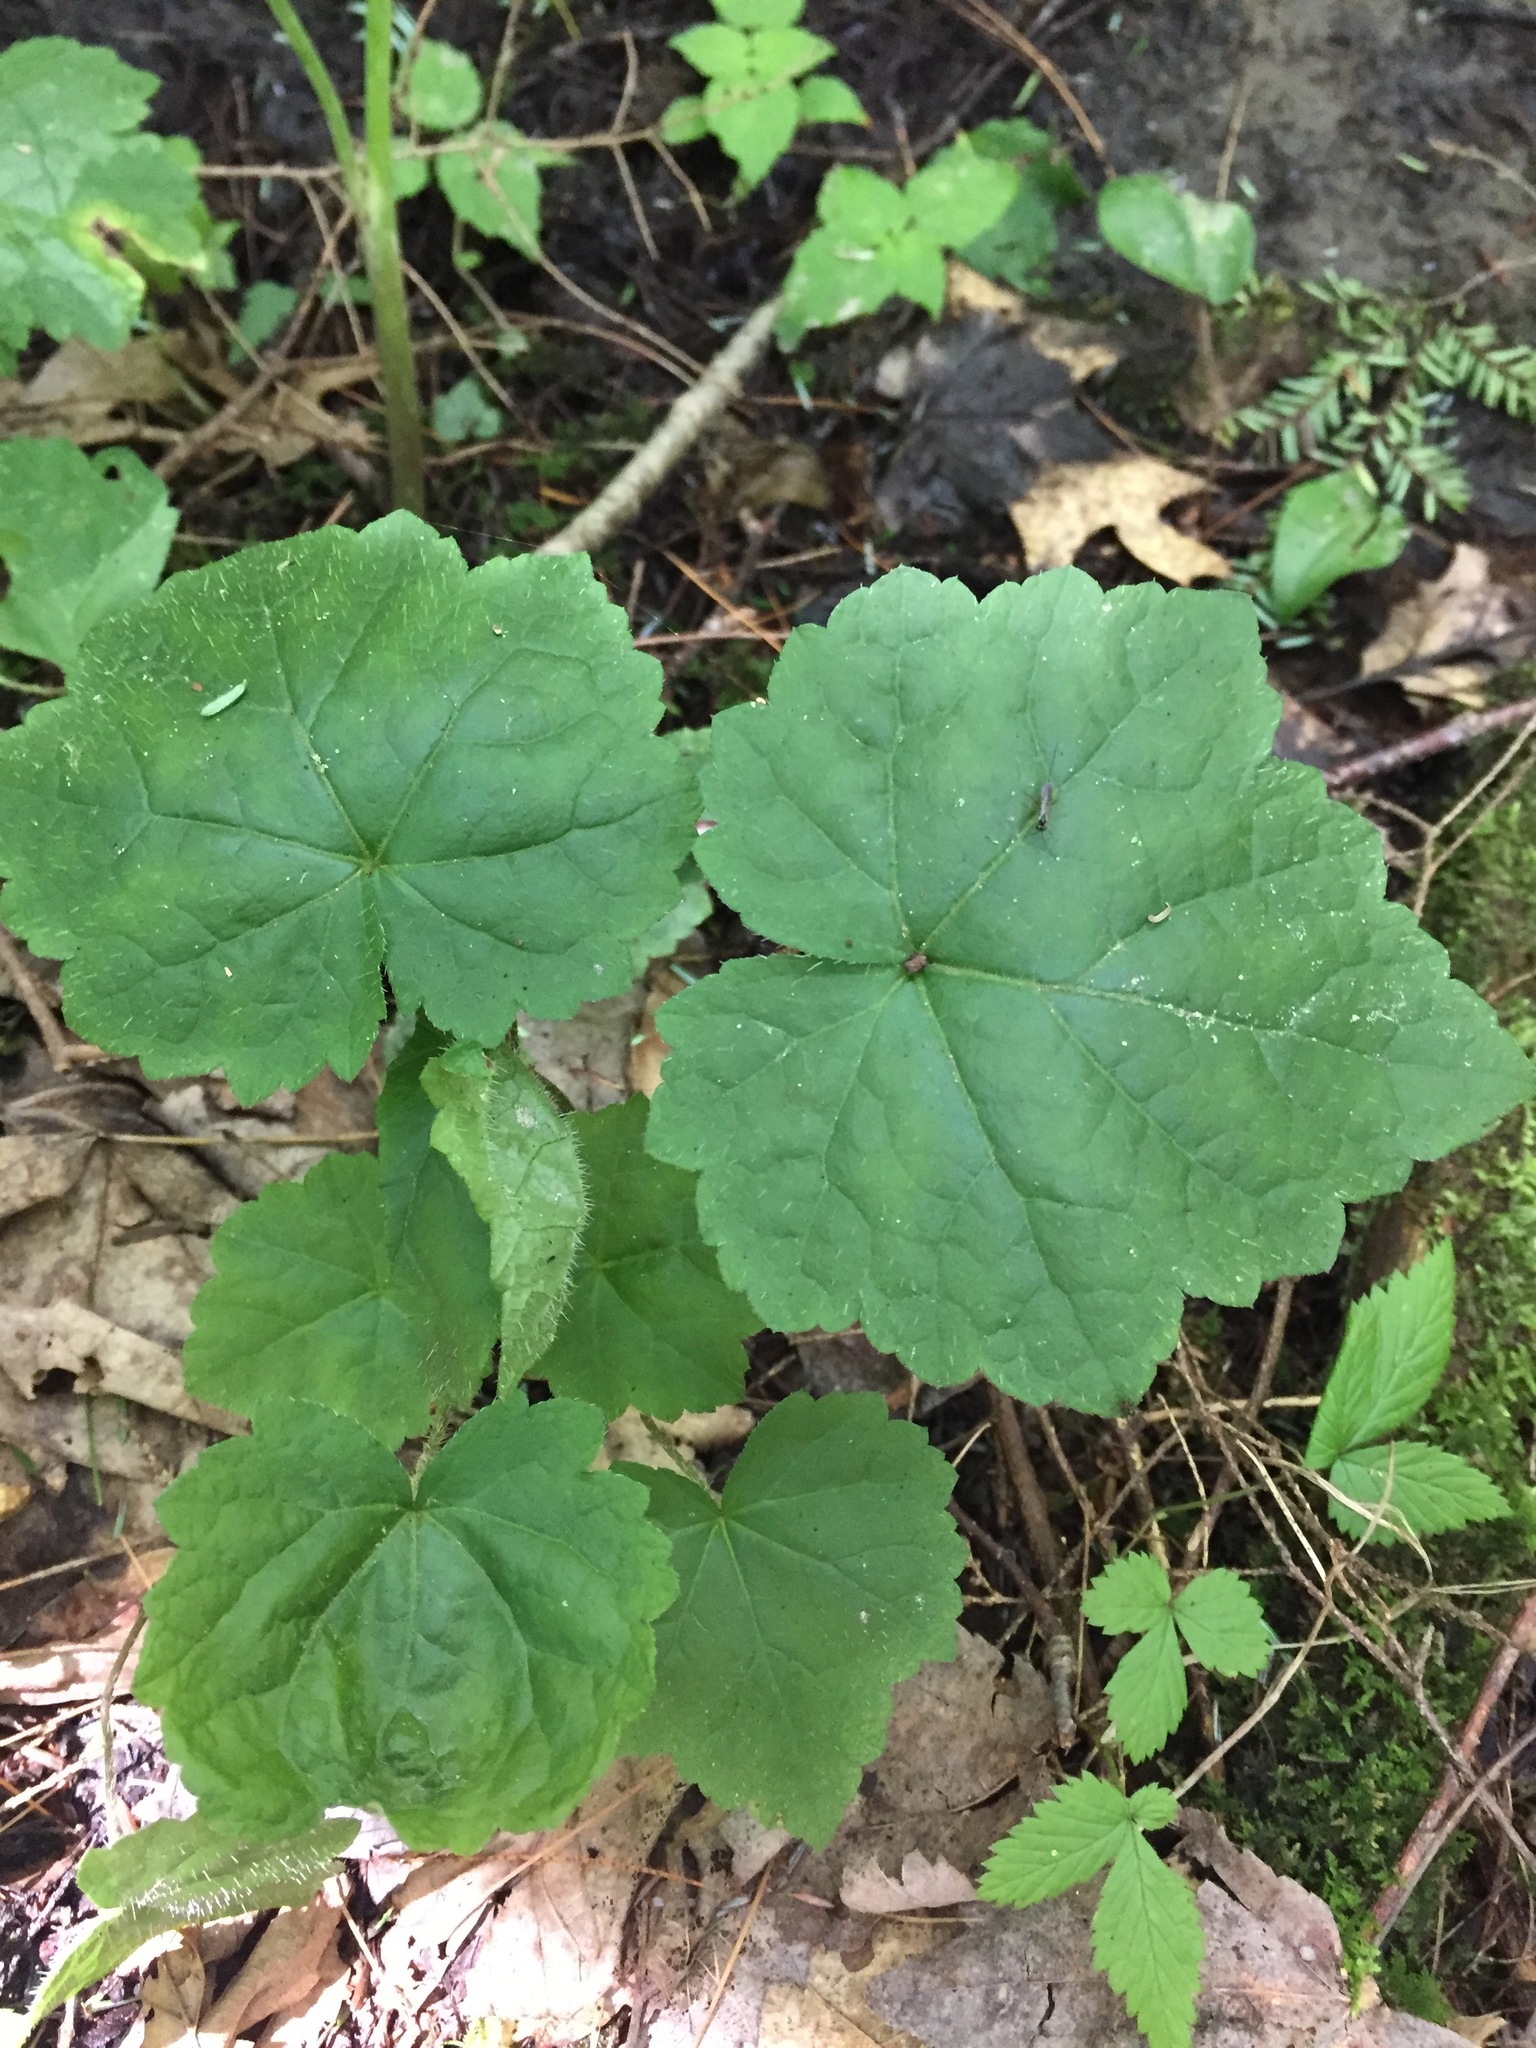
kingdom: Plantae
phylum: Tracheophyta
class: Magnoliopsida
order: Saxifragales
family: Saxifragaceae
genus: Mitella
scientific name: Mitella diphylla
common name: Coolwort
